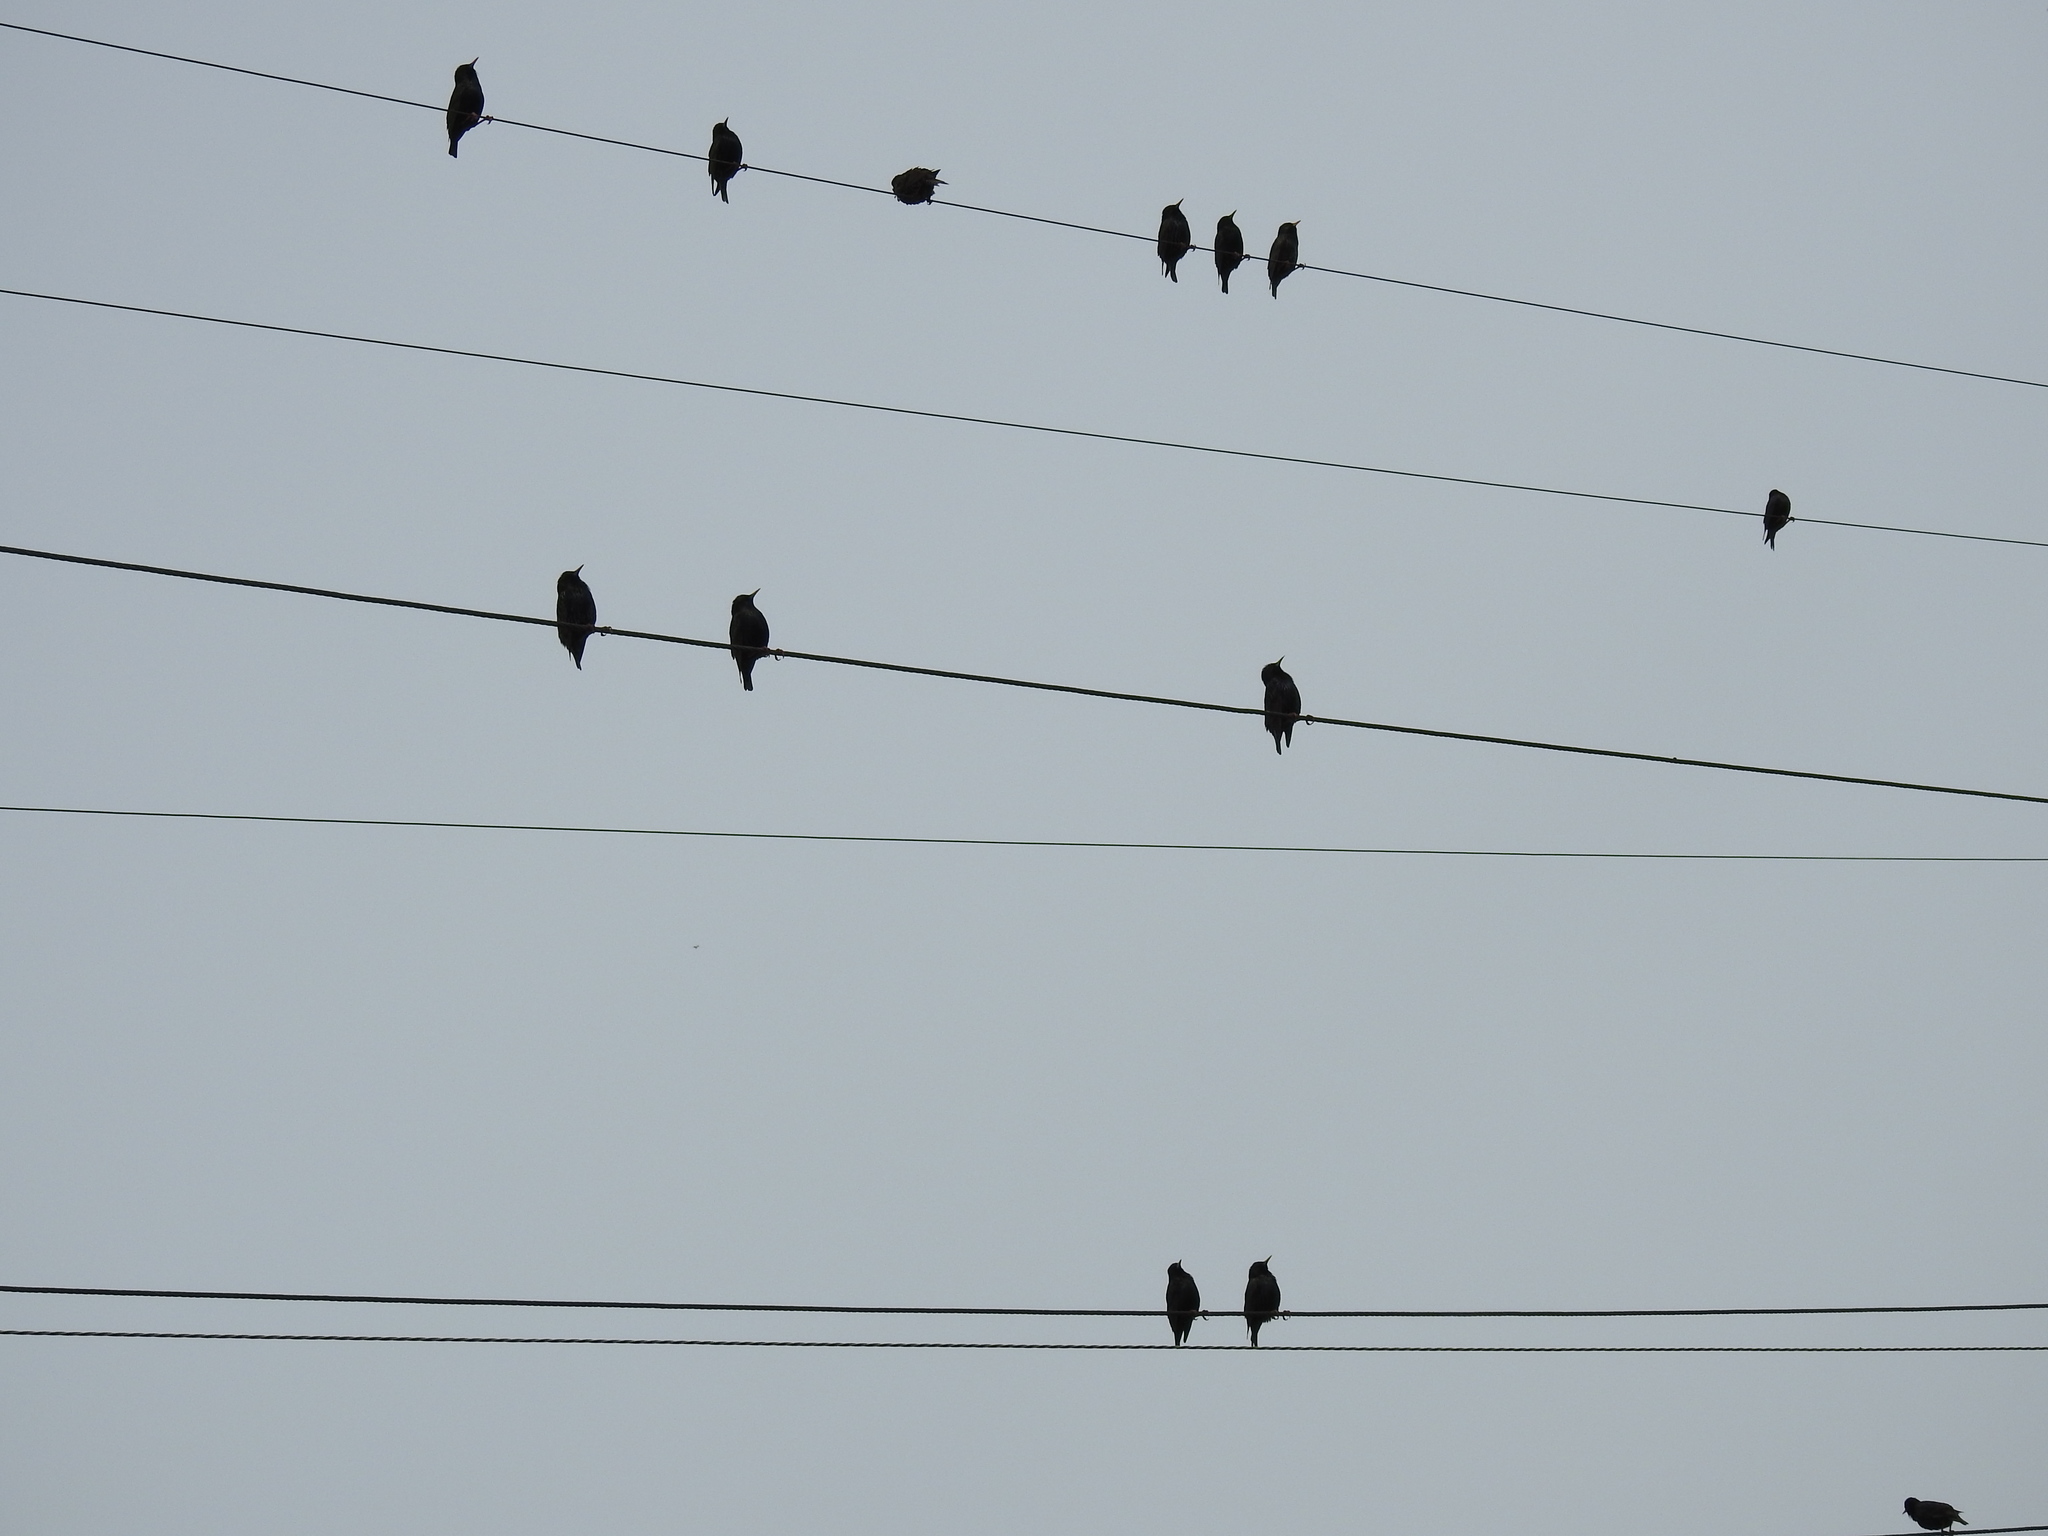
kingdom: Animalia
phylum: Chordata
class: Aves
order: Passeriformes
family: Sturnidae
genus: Sturnus
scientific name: Sturnus vulgaris
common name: Common starling
